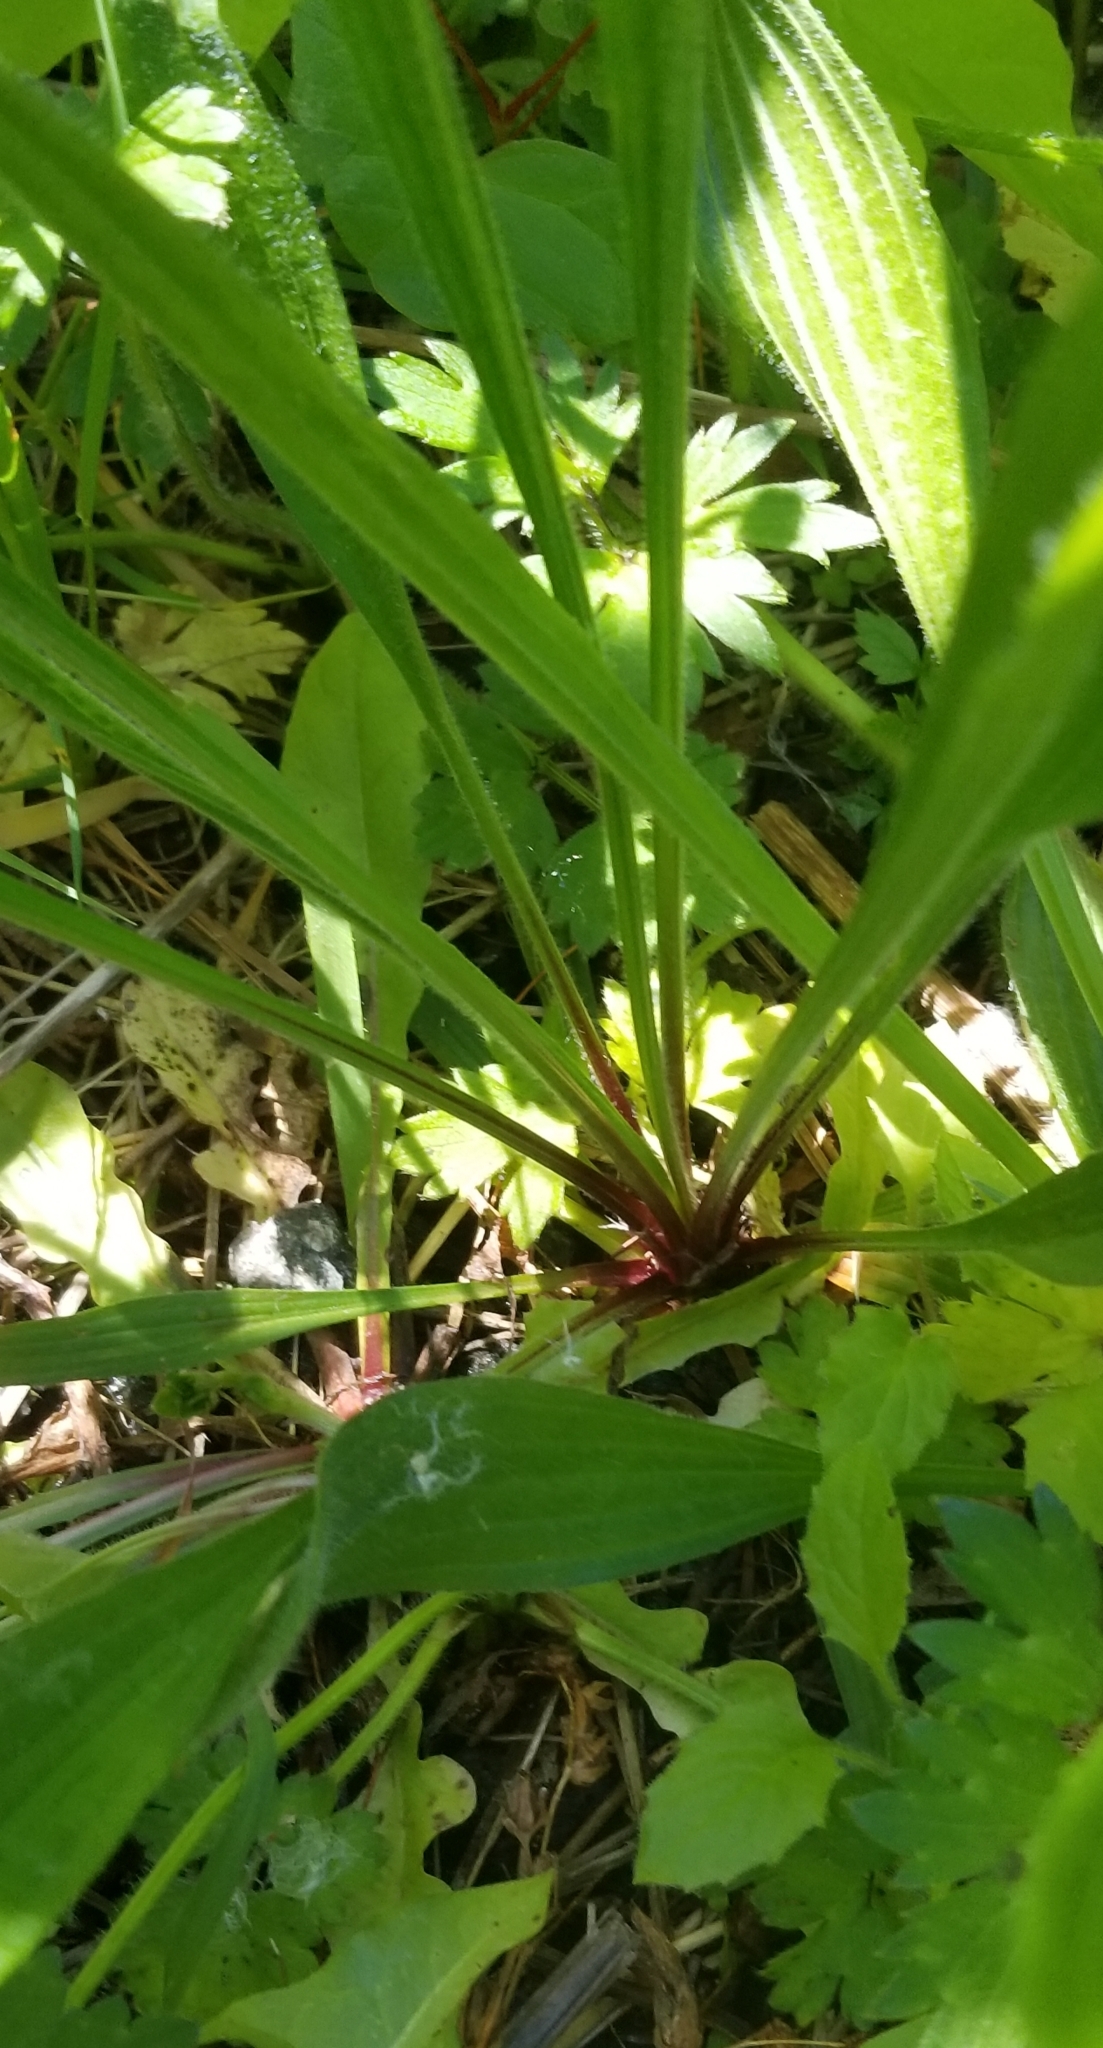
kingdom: Plantae
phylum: Tracheophyta
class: Magnoliopsida
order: Lamiales
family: Plantaginaceae
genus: Plantago
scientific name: Plantago lanceolata
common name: Ribwort plantain
